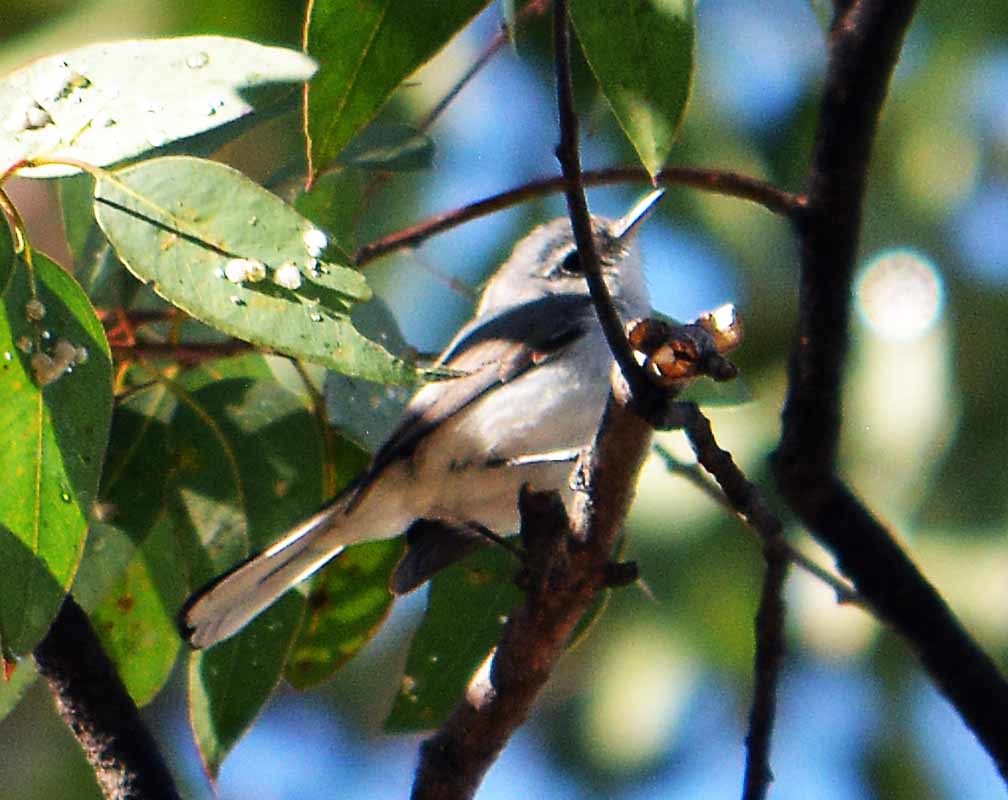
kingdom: Animalia
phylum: Chordata
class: Aves
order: Passeriformes
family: Polioptilidae
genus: Polioptila
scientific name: Polioptila caerulea
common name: Blue-gray gnatcatcher
